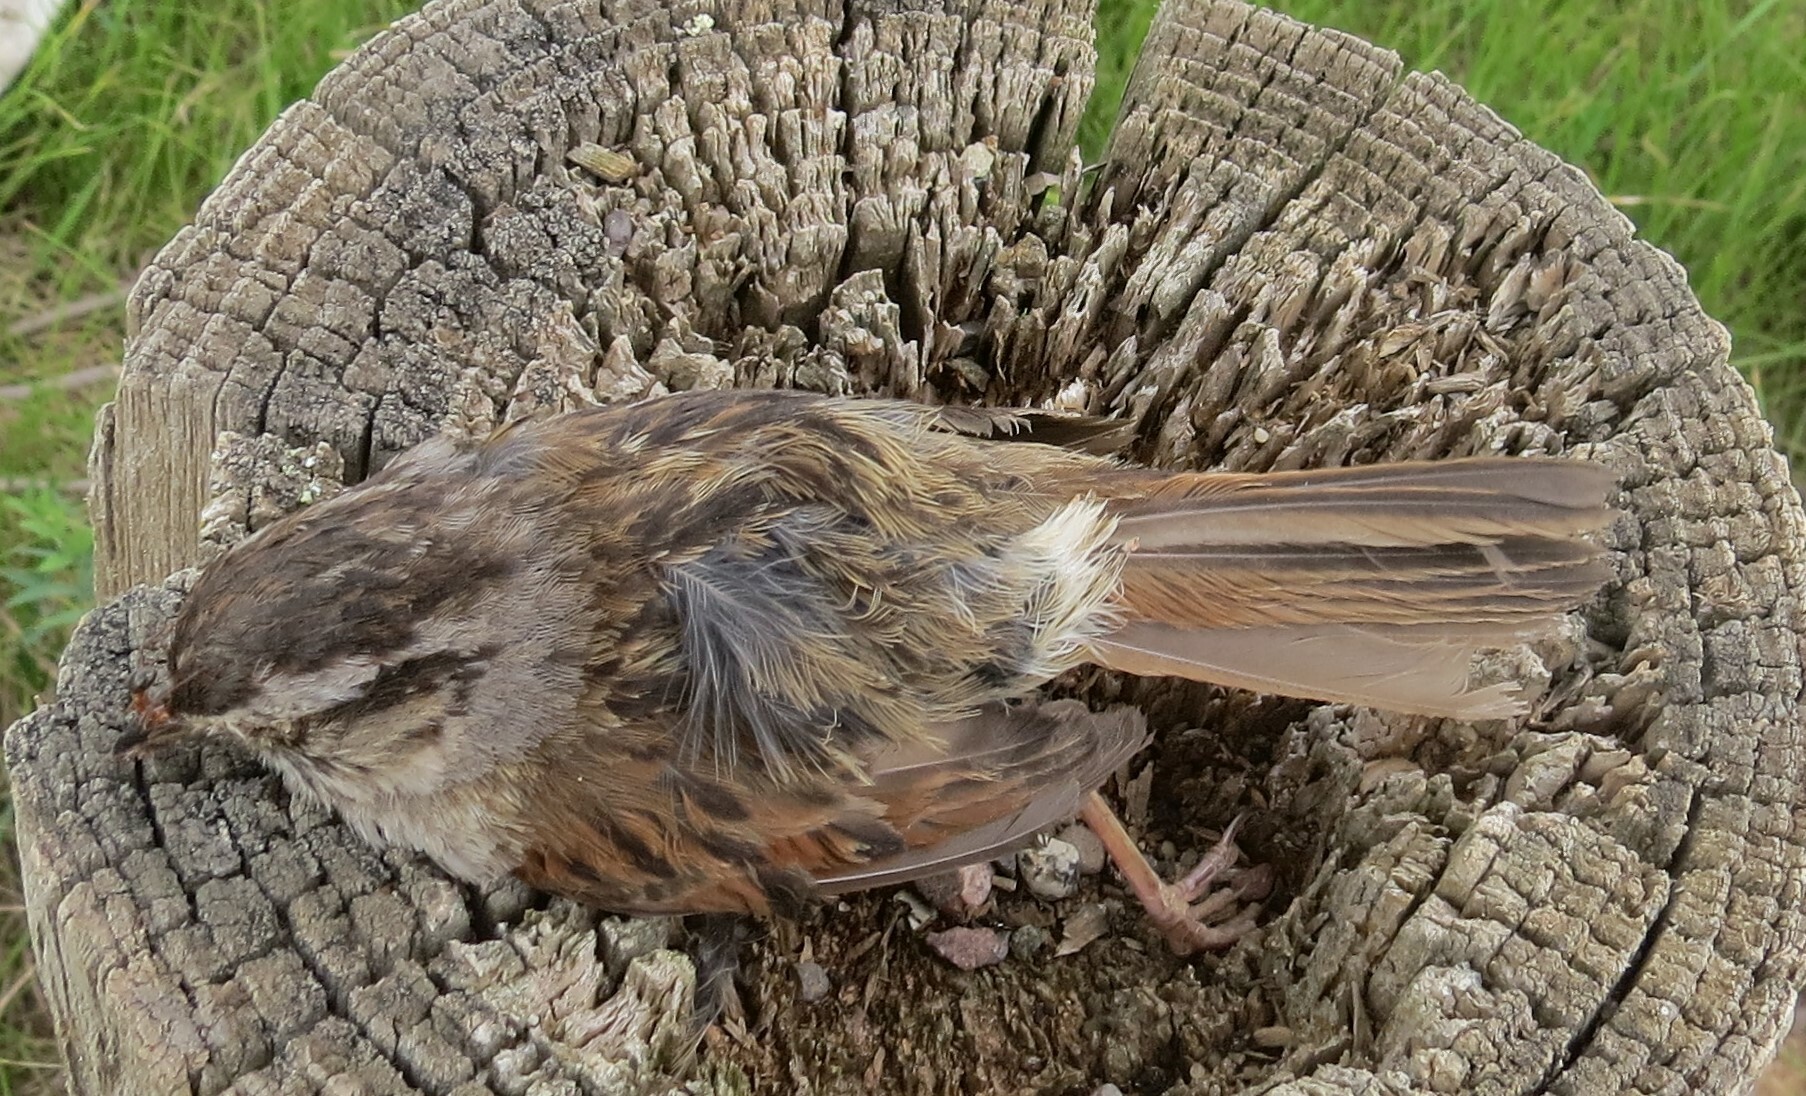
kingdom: Animalia
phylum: Chordata
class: Aves
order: Passeriformes
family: Passerellidae
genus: Melospiza
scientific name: Melospiza georgiana
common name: Swamp sparrow
